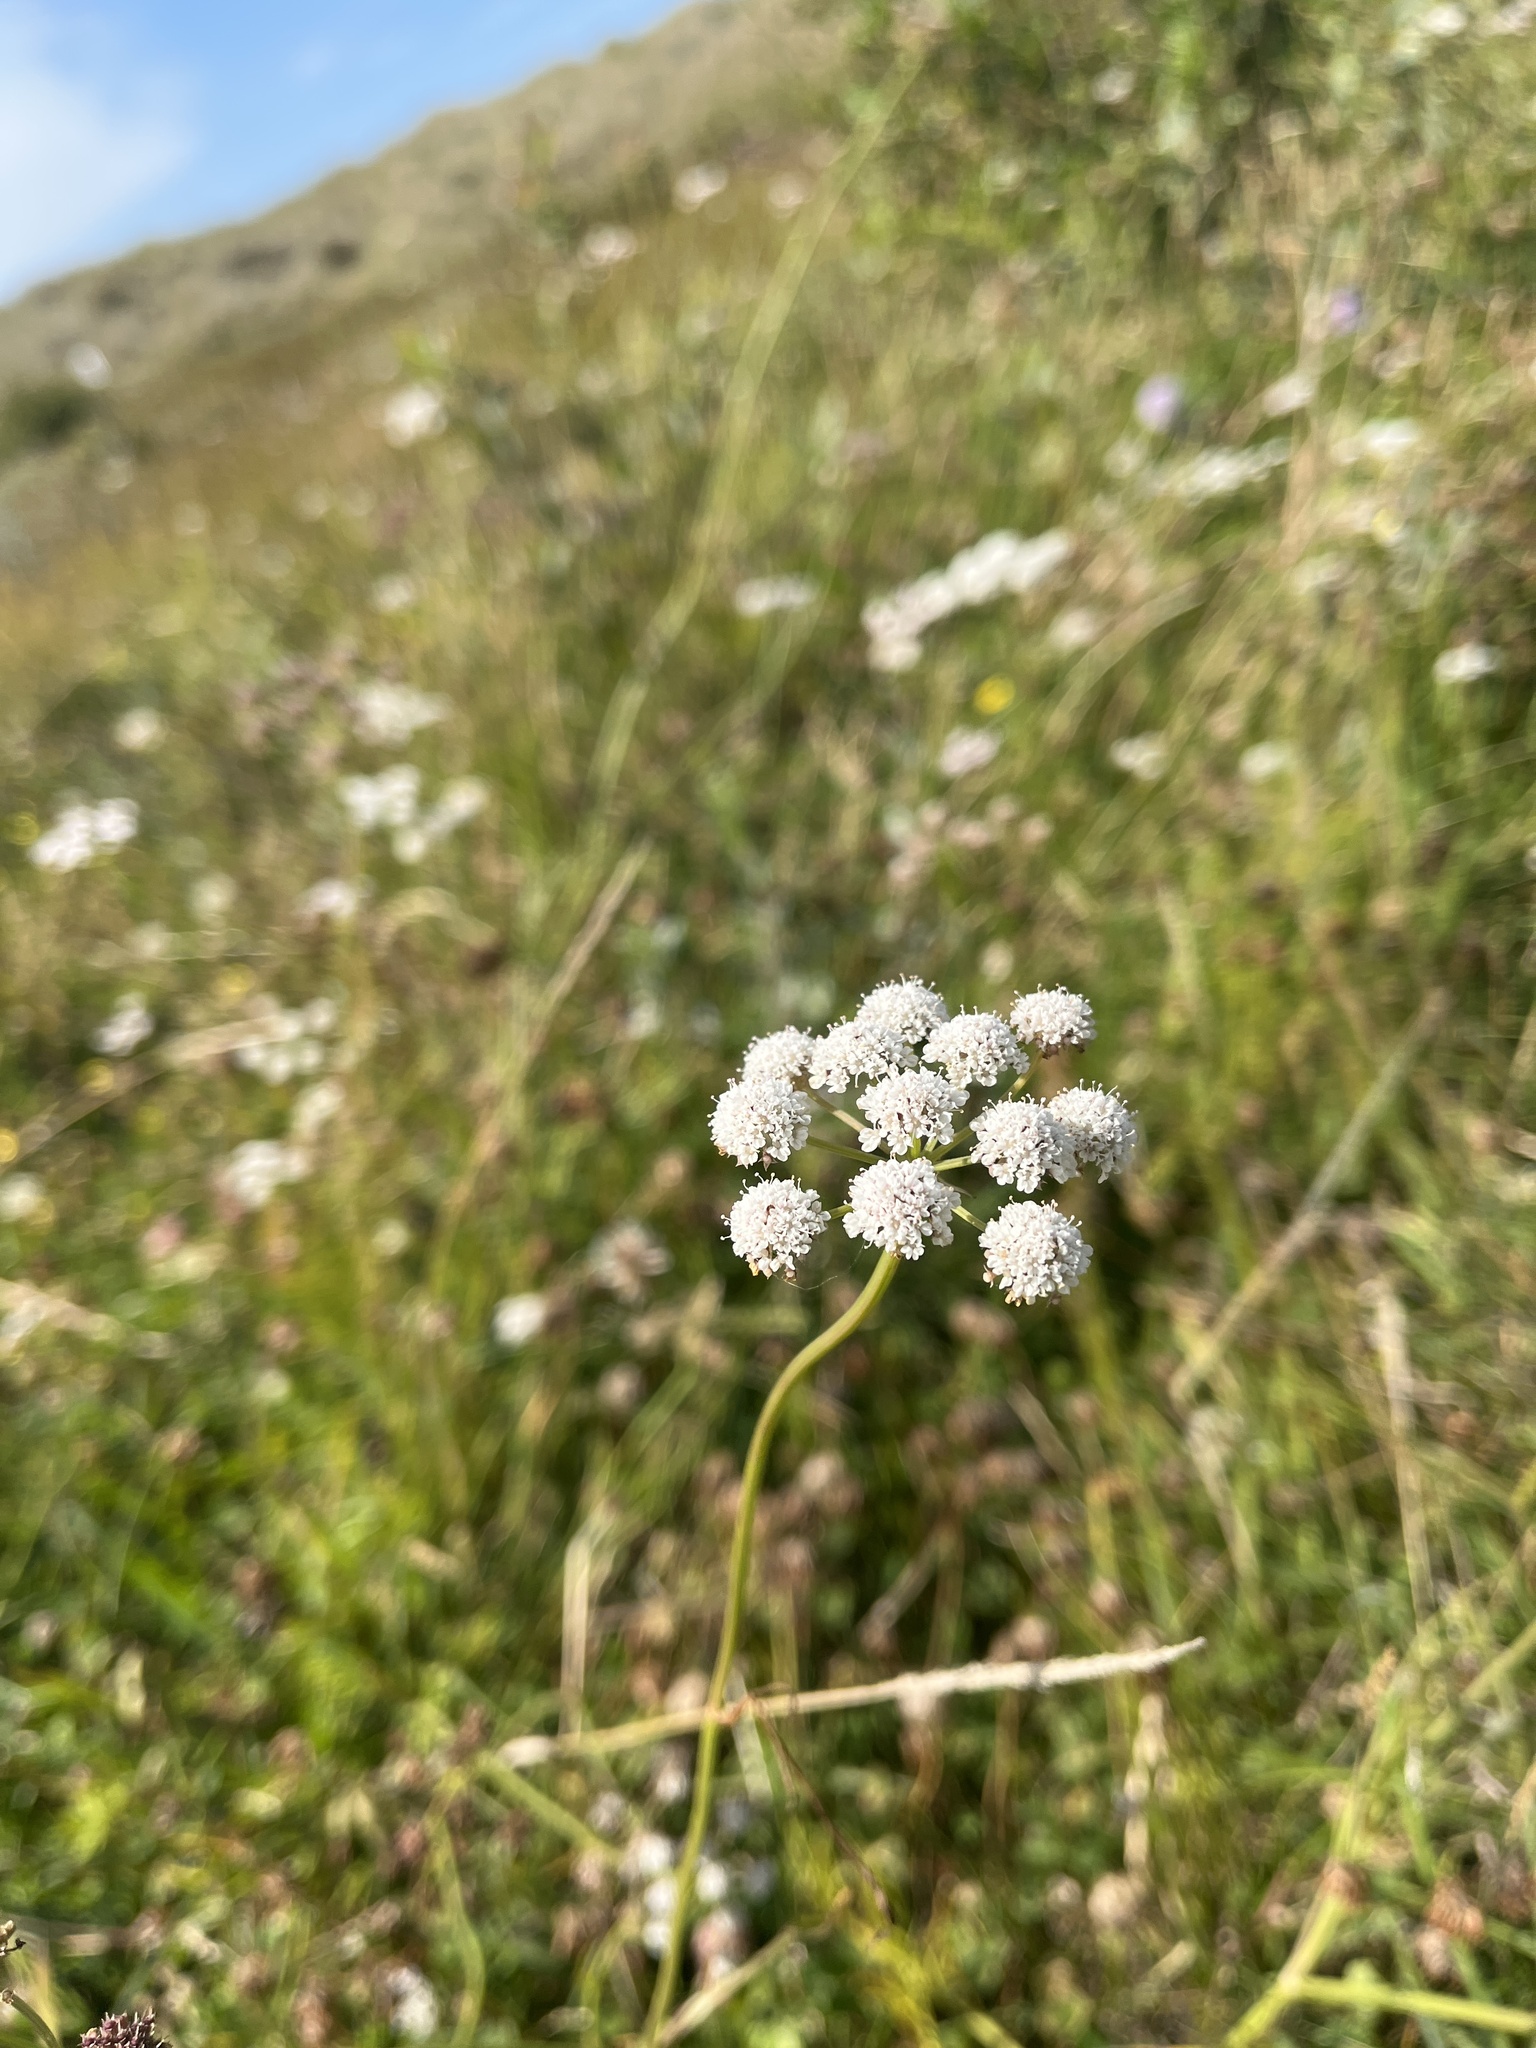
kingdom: Plantae
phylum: Tracheophyta
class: Magnoliopsida
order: Apiales
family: Apiaceae
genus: Oenanthe
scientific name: Oenanthe lachenalii
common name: Parsley water-dropwort
